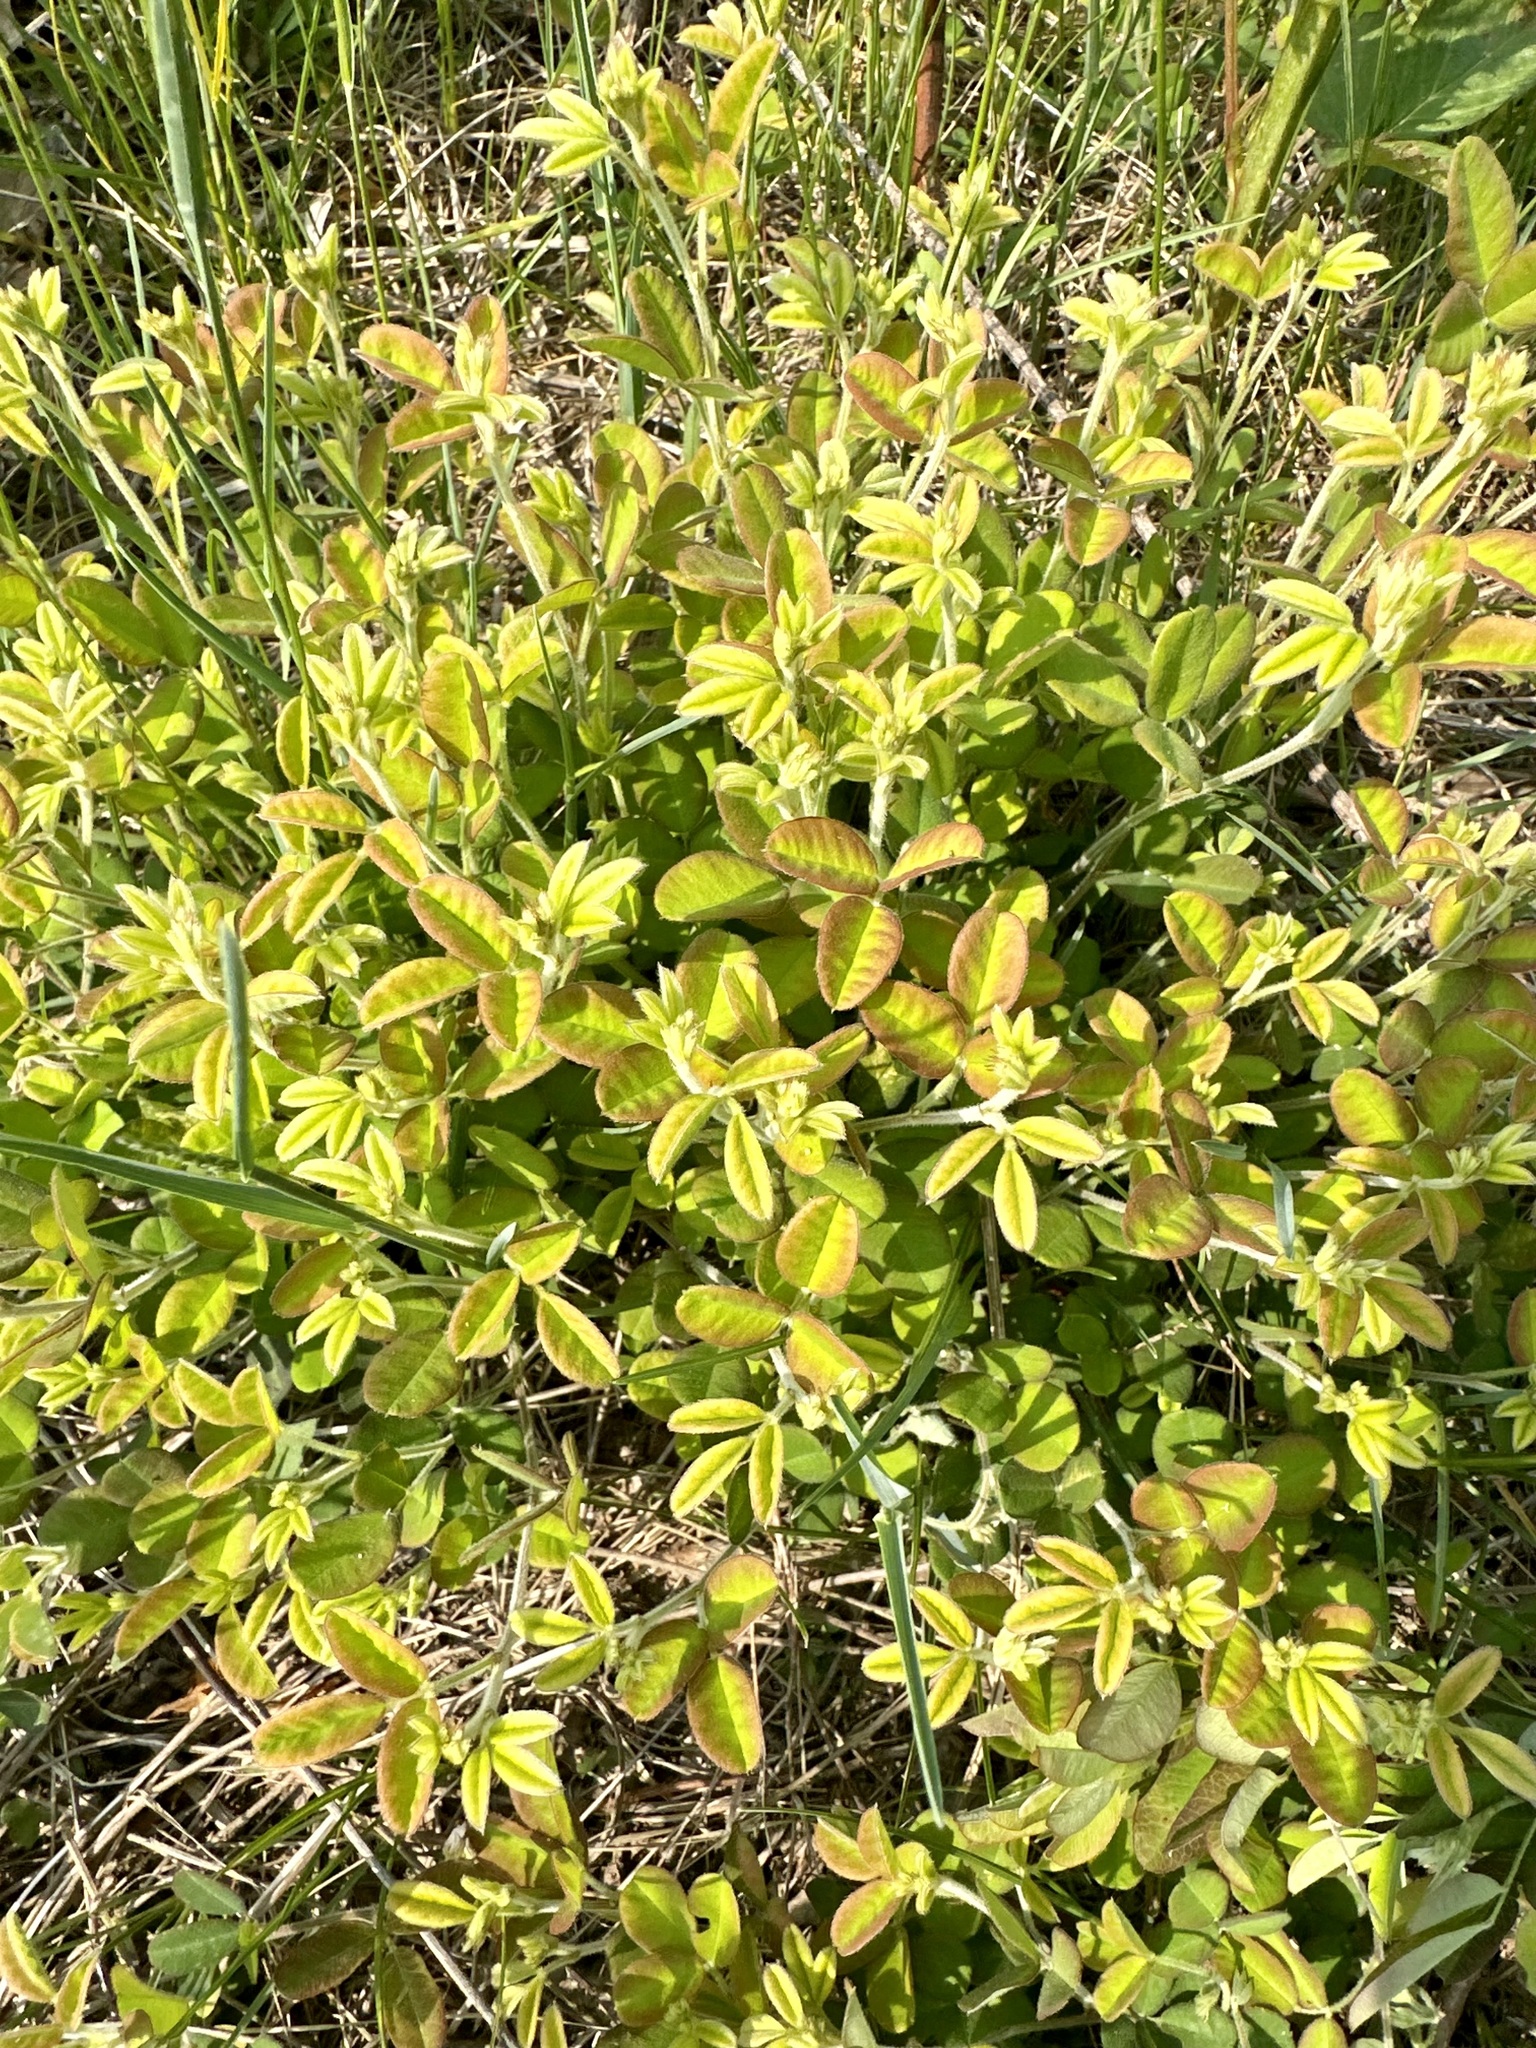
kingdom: Plantae
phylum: Tracheophyta
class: Magnoliopsida
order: Fabales
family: Fabaceae
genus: Lespedeza
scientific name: Lespedeza procumbens
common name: Downy trailing bush-clover
